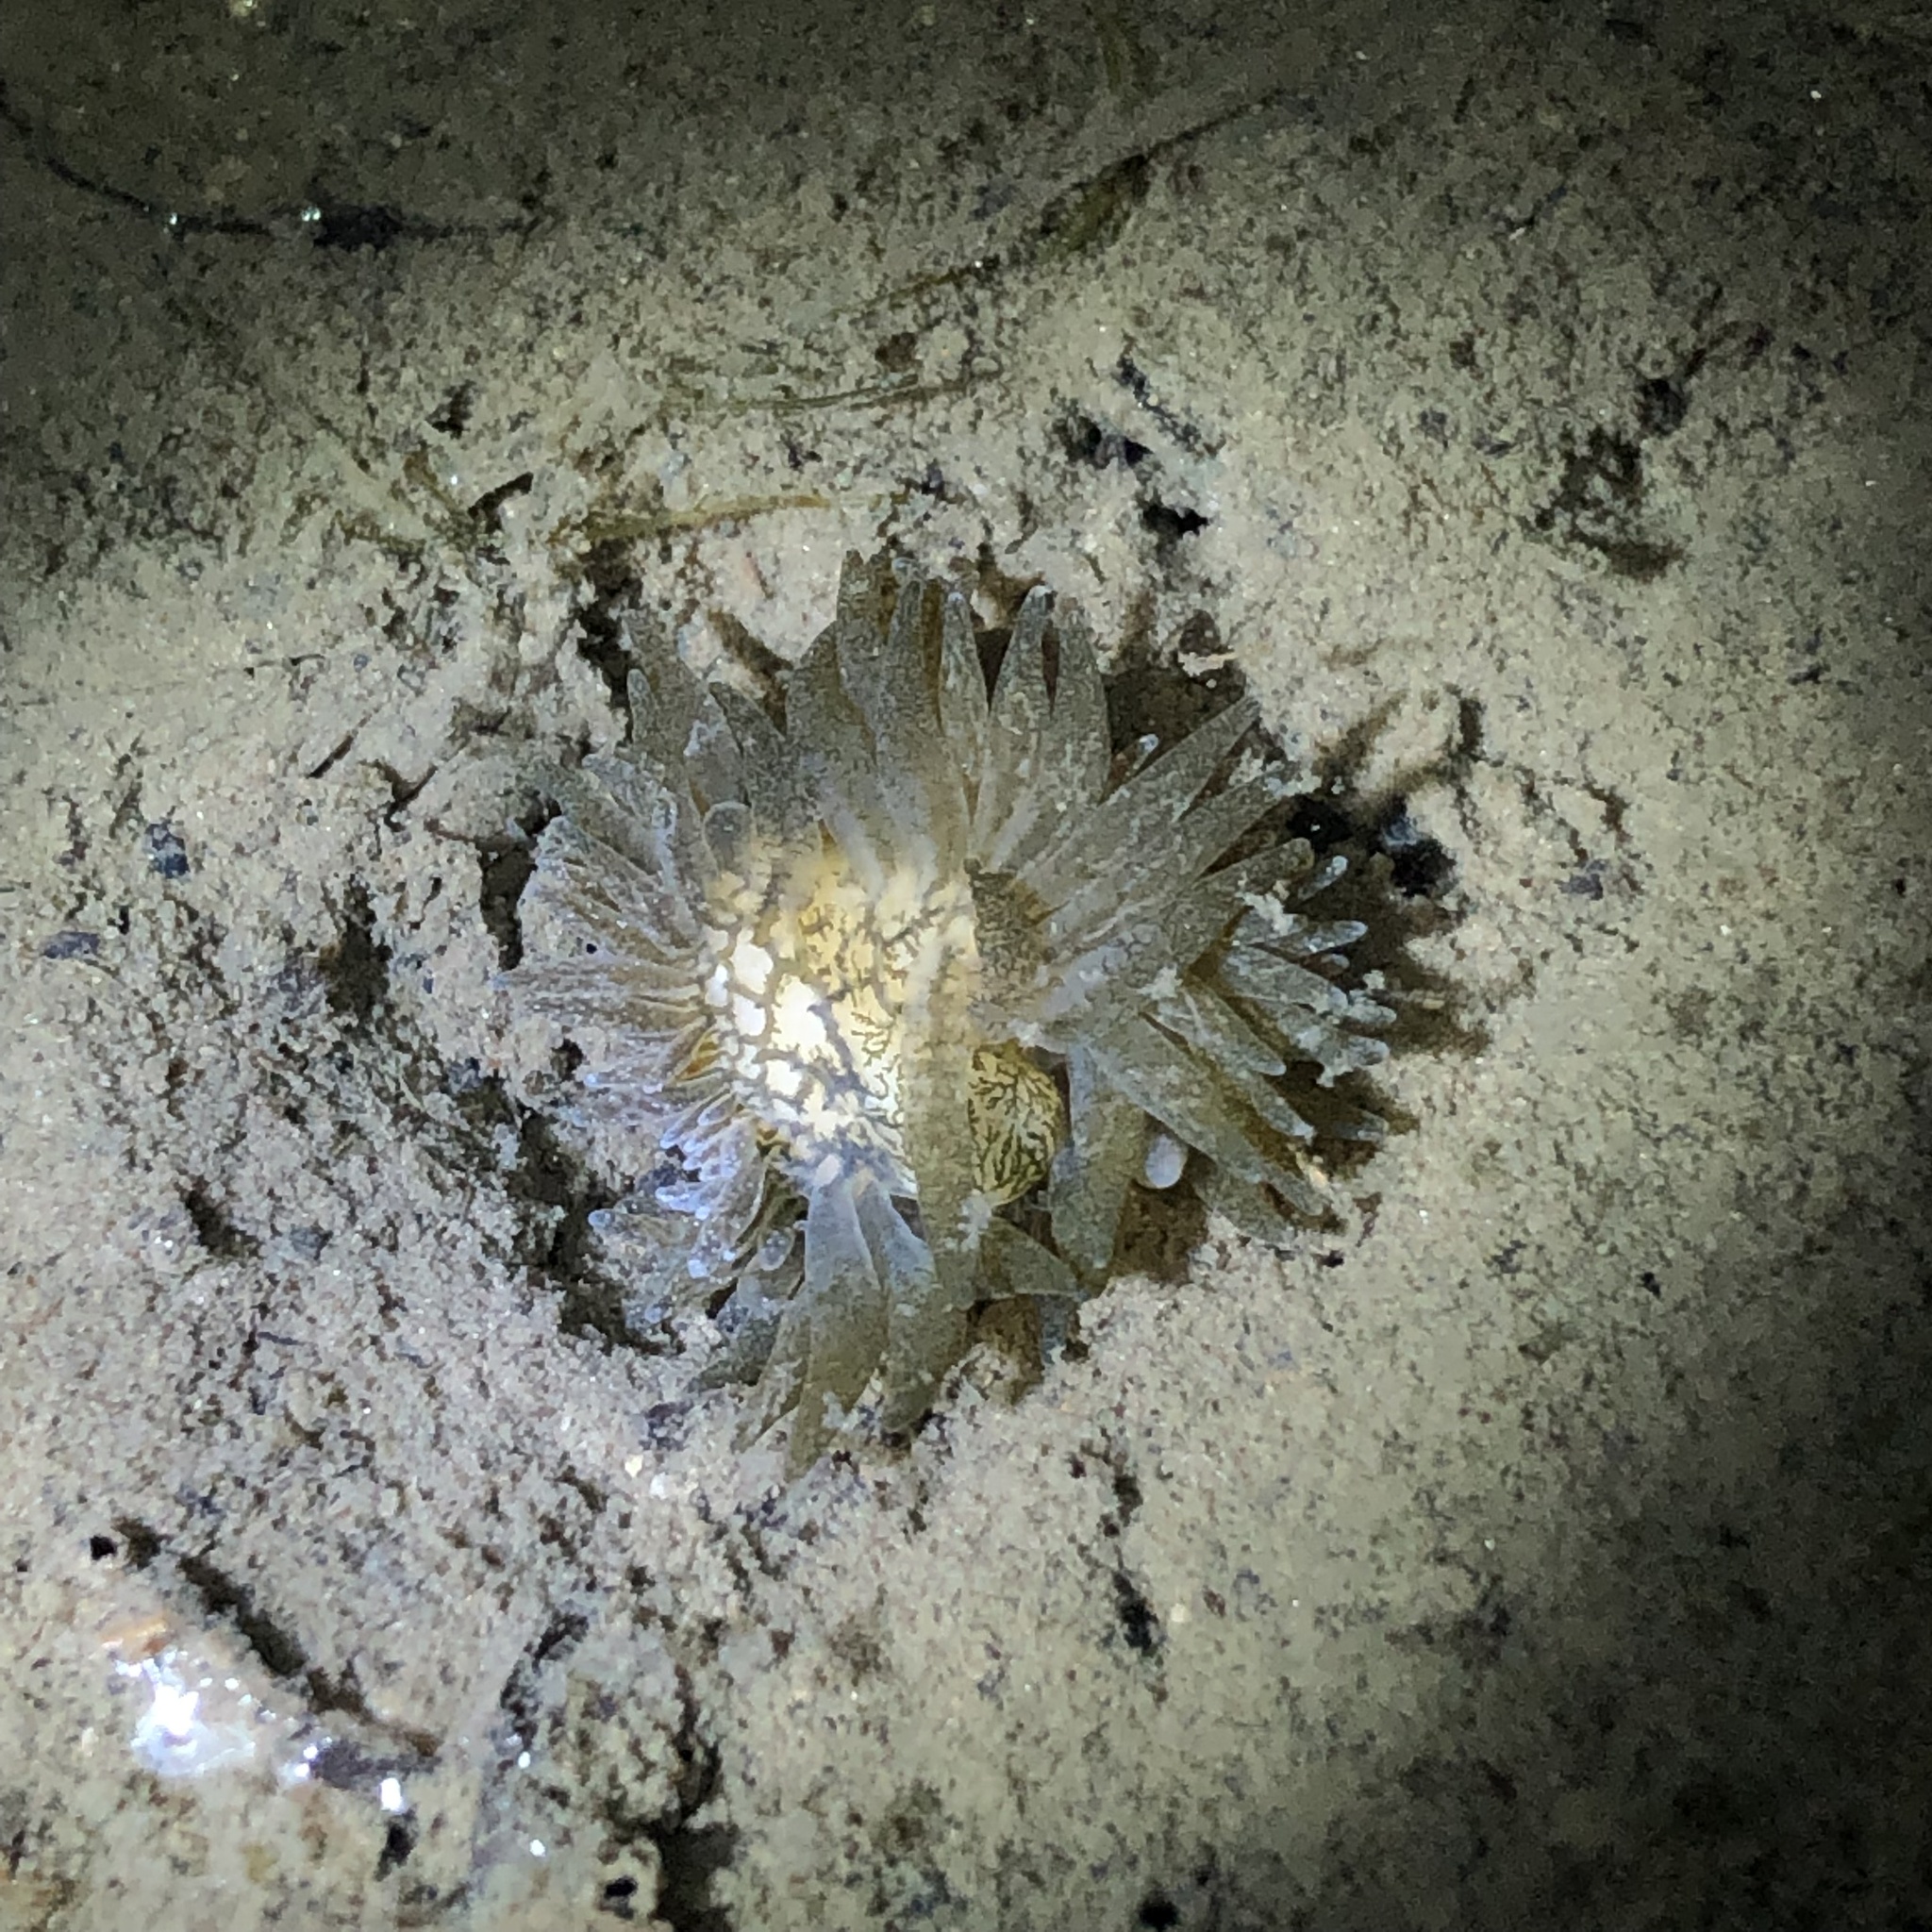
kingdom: Animalia
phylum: Mollusca
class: Gastropoda
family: Limapontiidae
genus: Placida
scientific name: Placida dendritica
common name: Dendritic nudibranch
